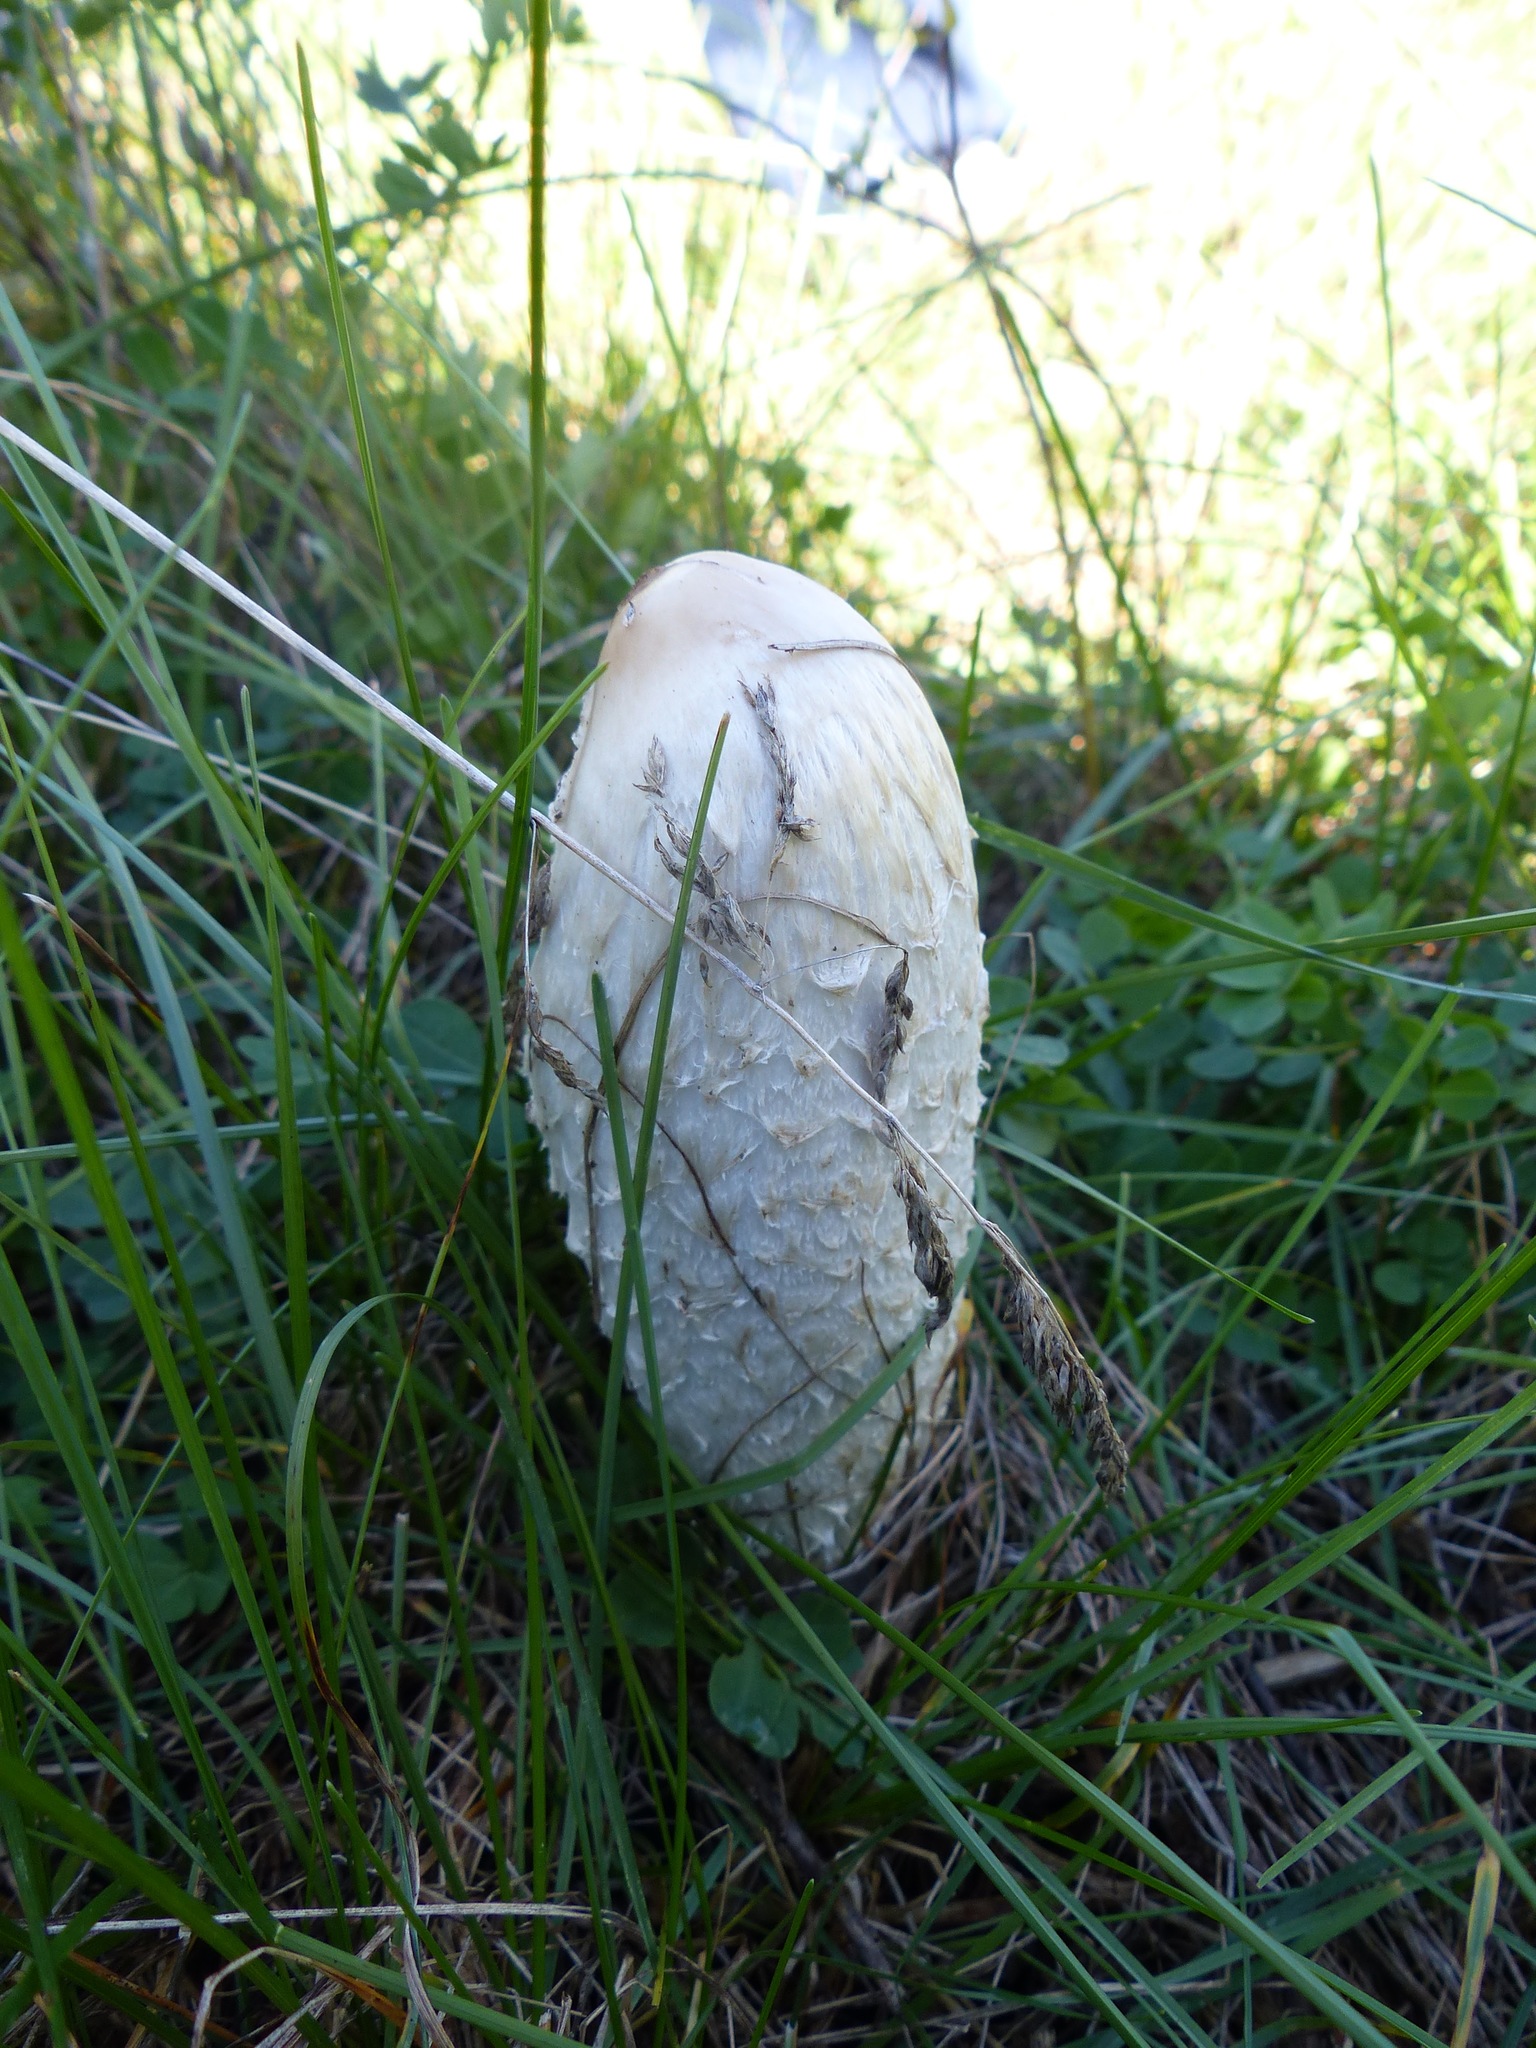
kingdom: Fungi
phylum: Basidiomycota
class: Agaricomycetes
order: Agaricales
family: Agaricaceae
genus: Coprinus
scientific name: Coprinus comatus
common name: Lawyer's wig
